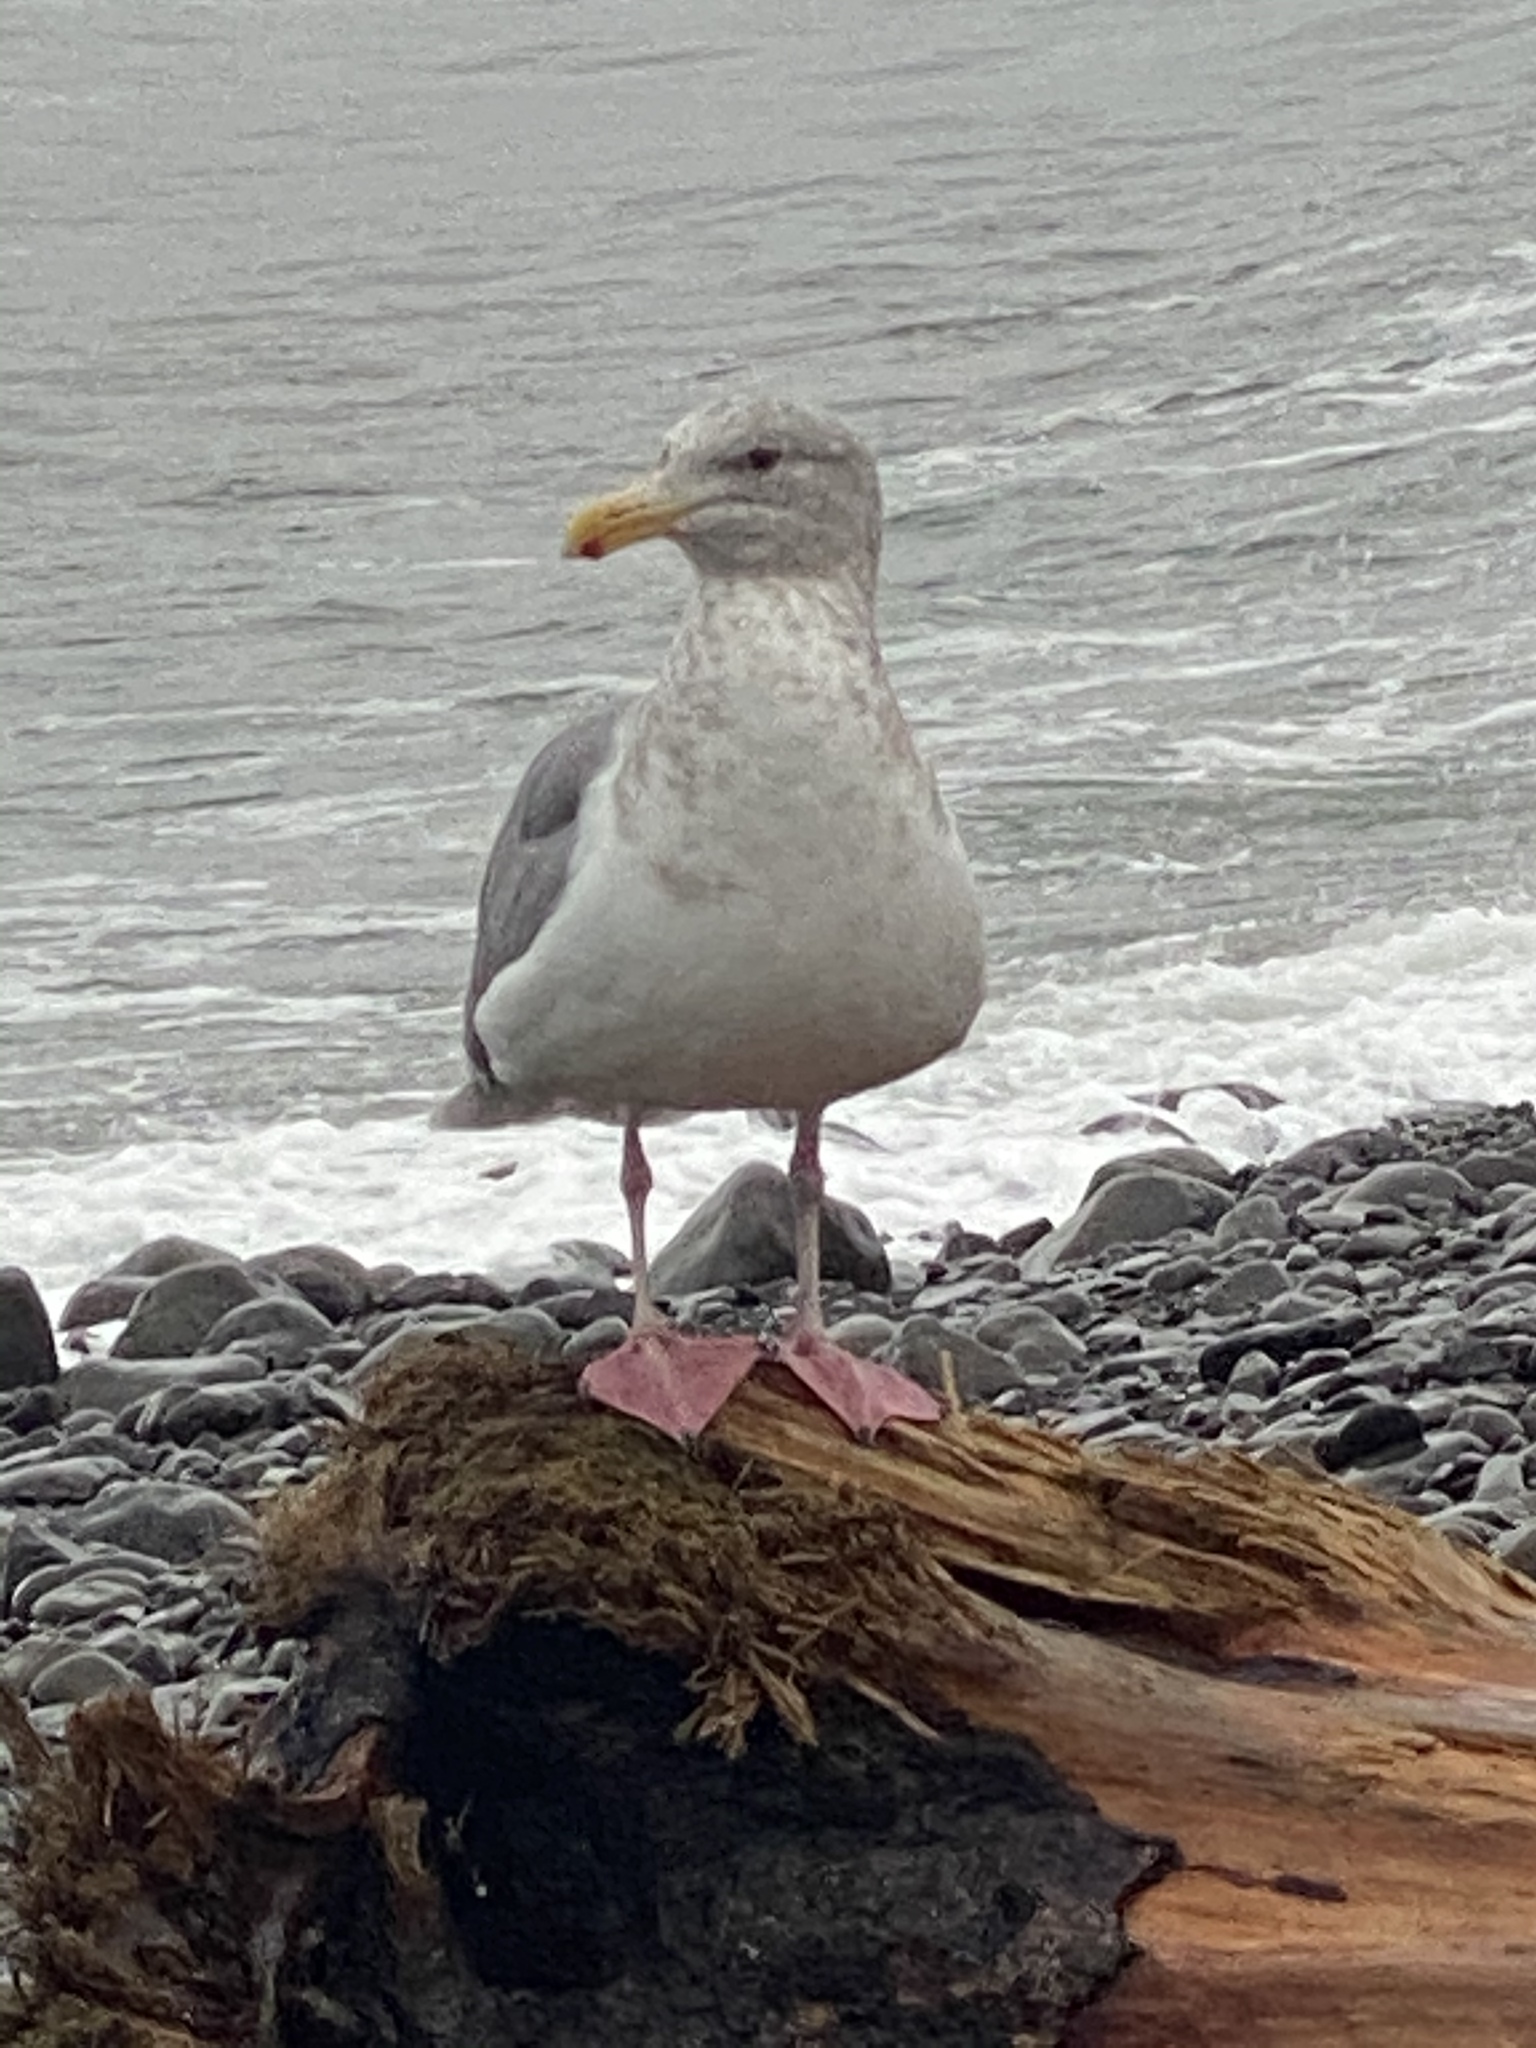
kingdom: Animalia
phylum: Chordata
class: Aves
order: Charadriiformes
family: Laridae
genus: Larus
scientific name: Larus
